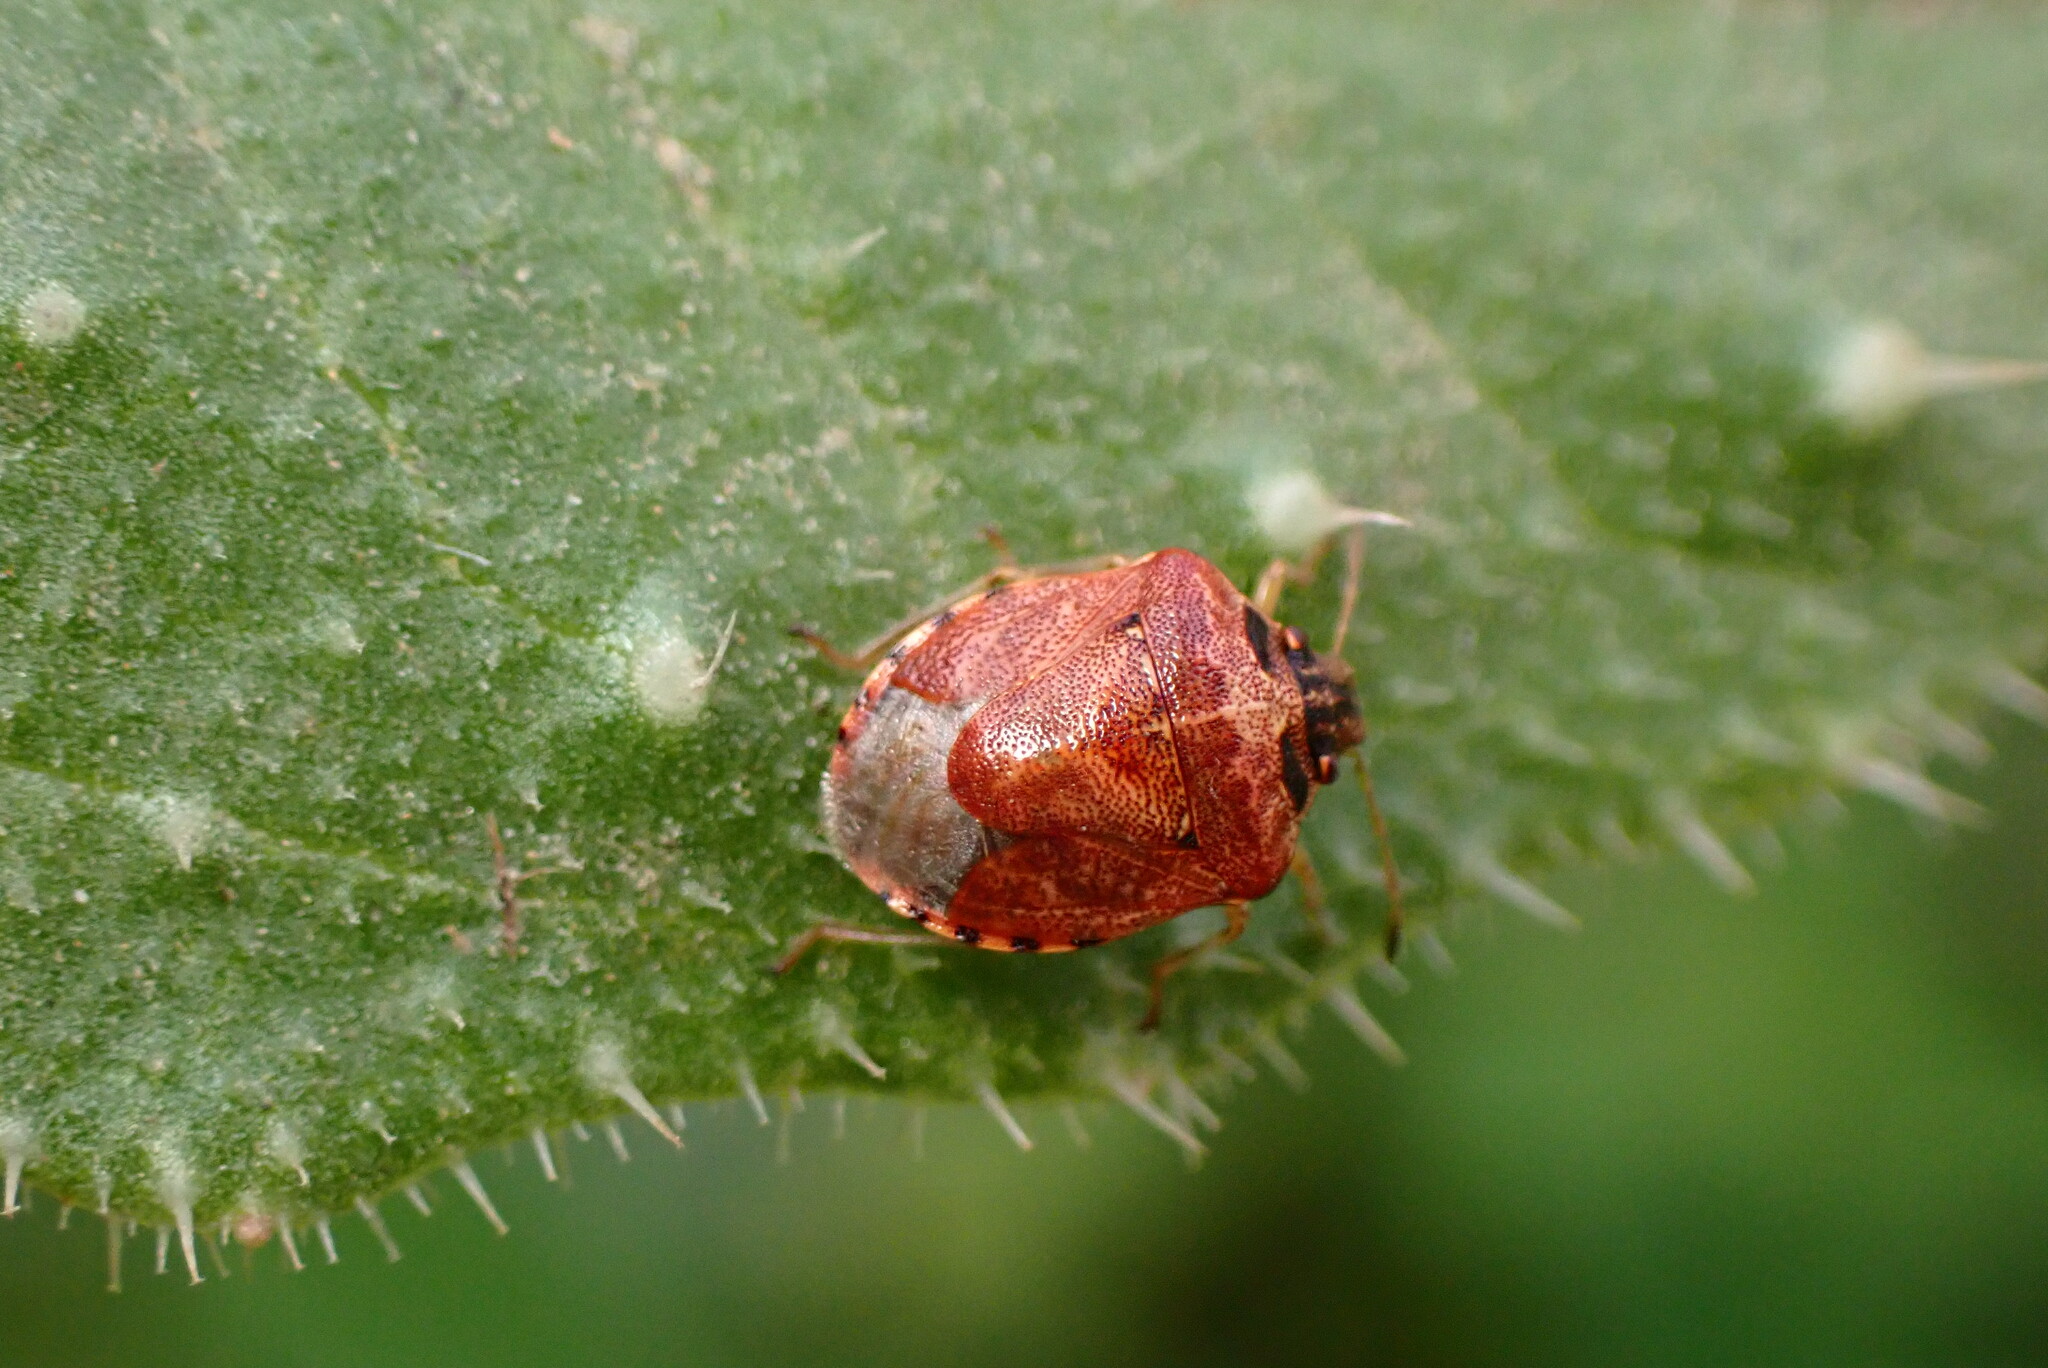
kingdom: Animalia
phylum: Arthropoda
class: Insecta
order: Hemiptera
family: Pentatomidae
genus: Cosmopepla
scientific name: Cosmopepla intergressus
